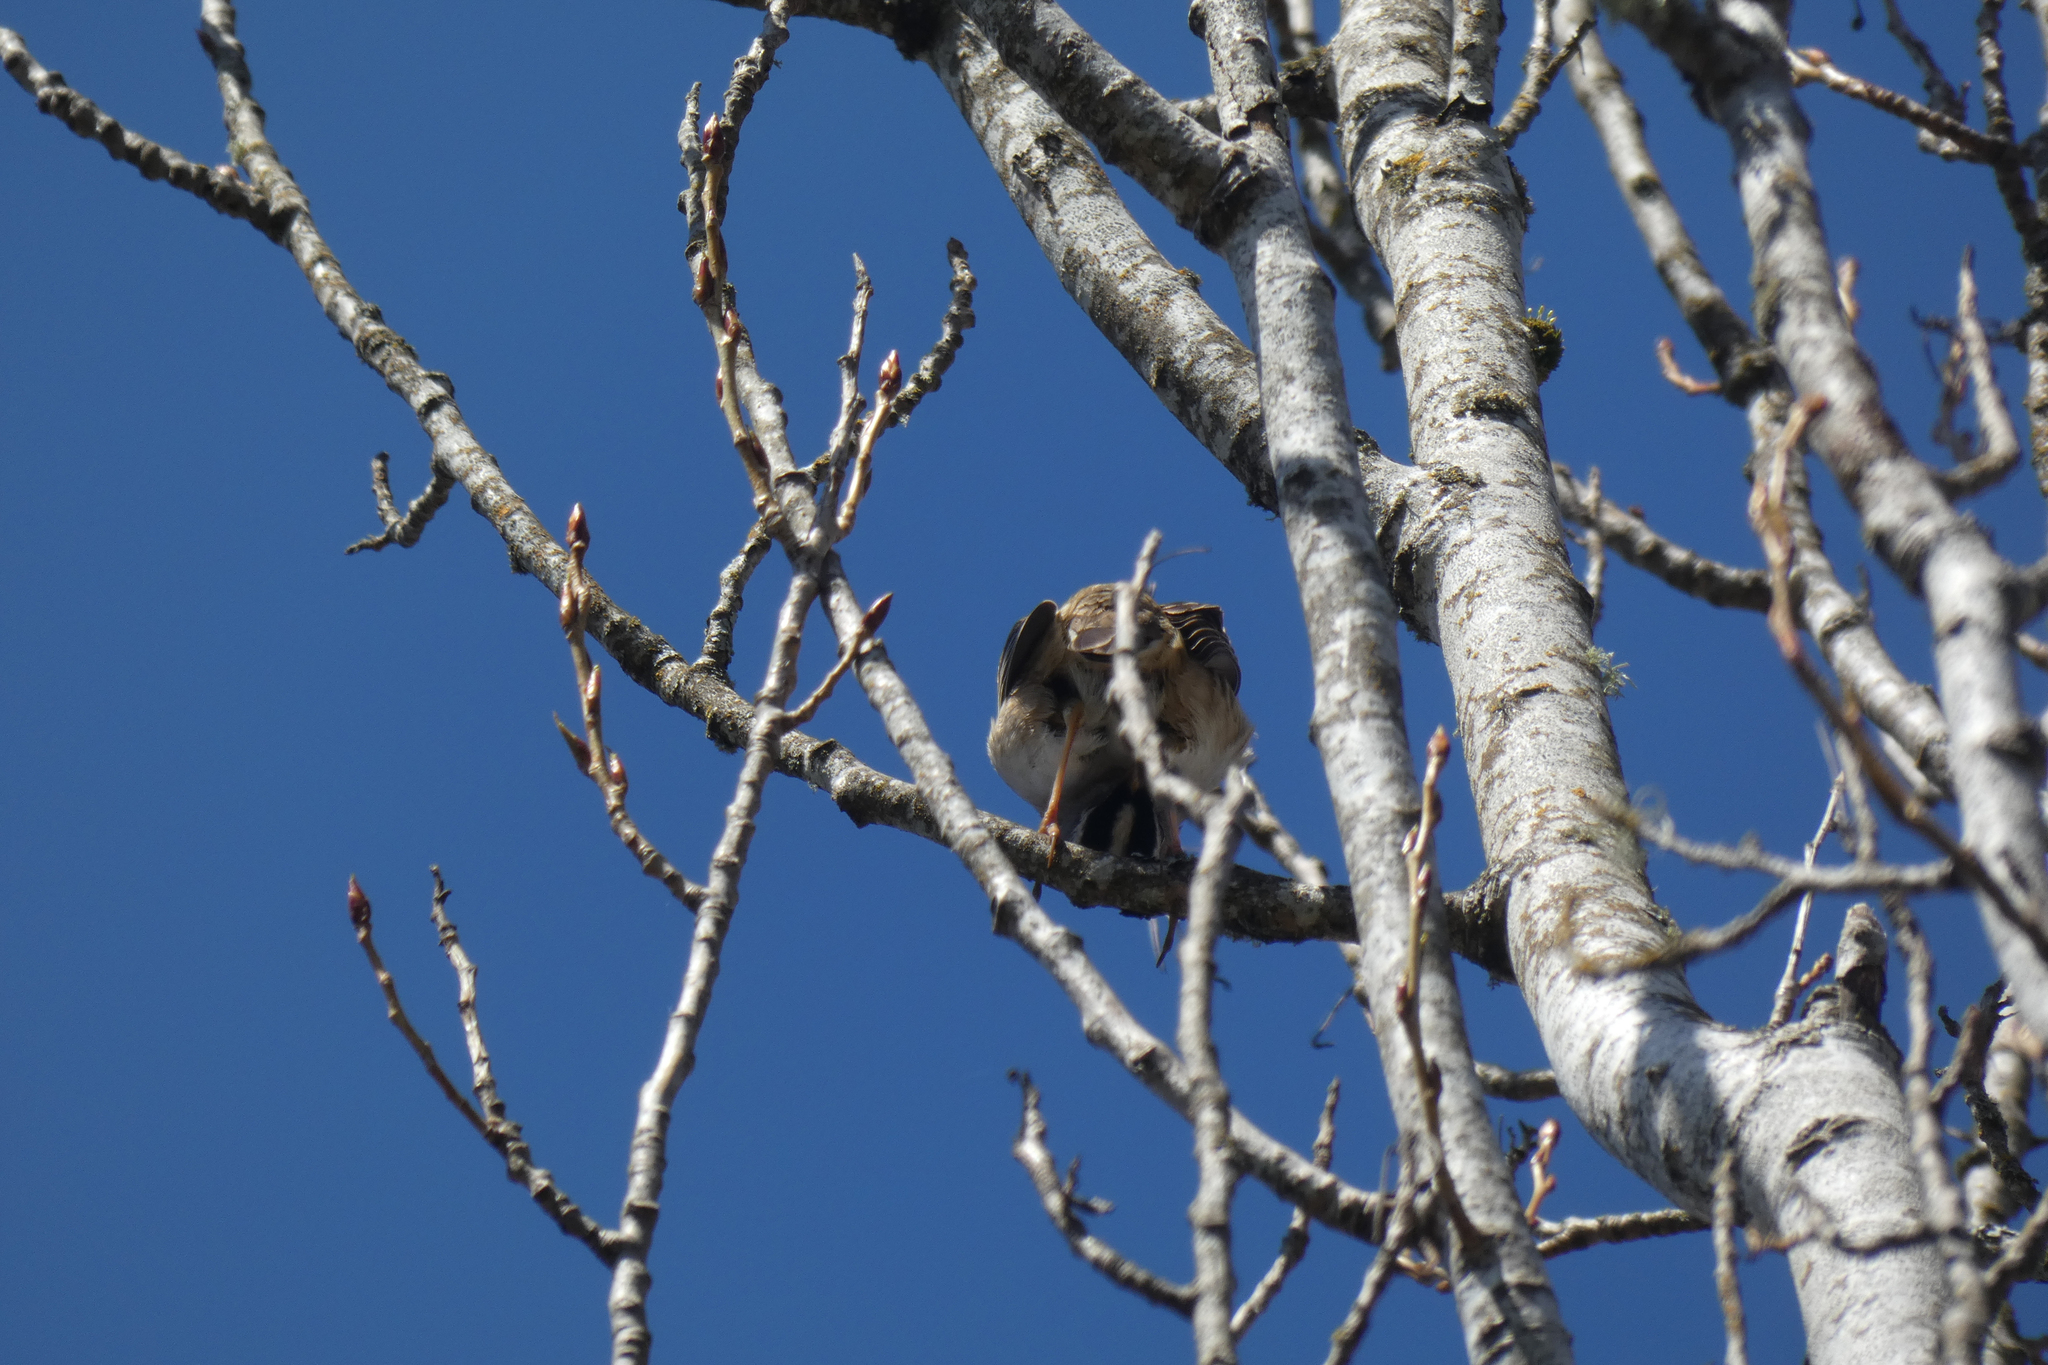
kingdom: Animalia
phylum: Chordata
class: Aves
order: Passeriformes
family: Passerellidae
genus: Zonotrichia
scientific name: Zonotrichia leucophrys
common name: White-crowned sparrow
